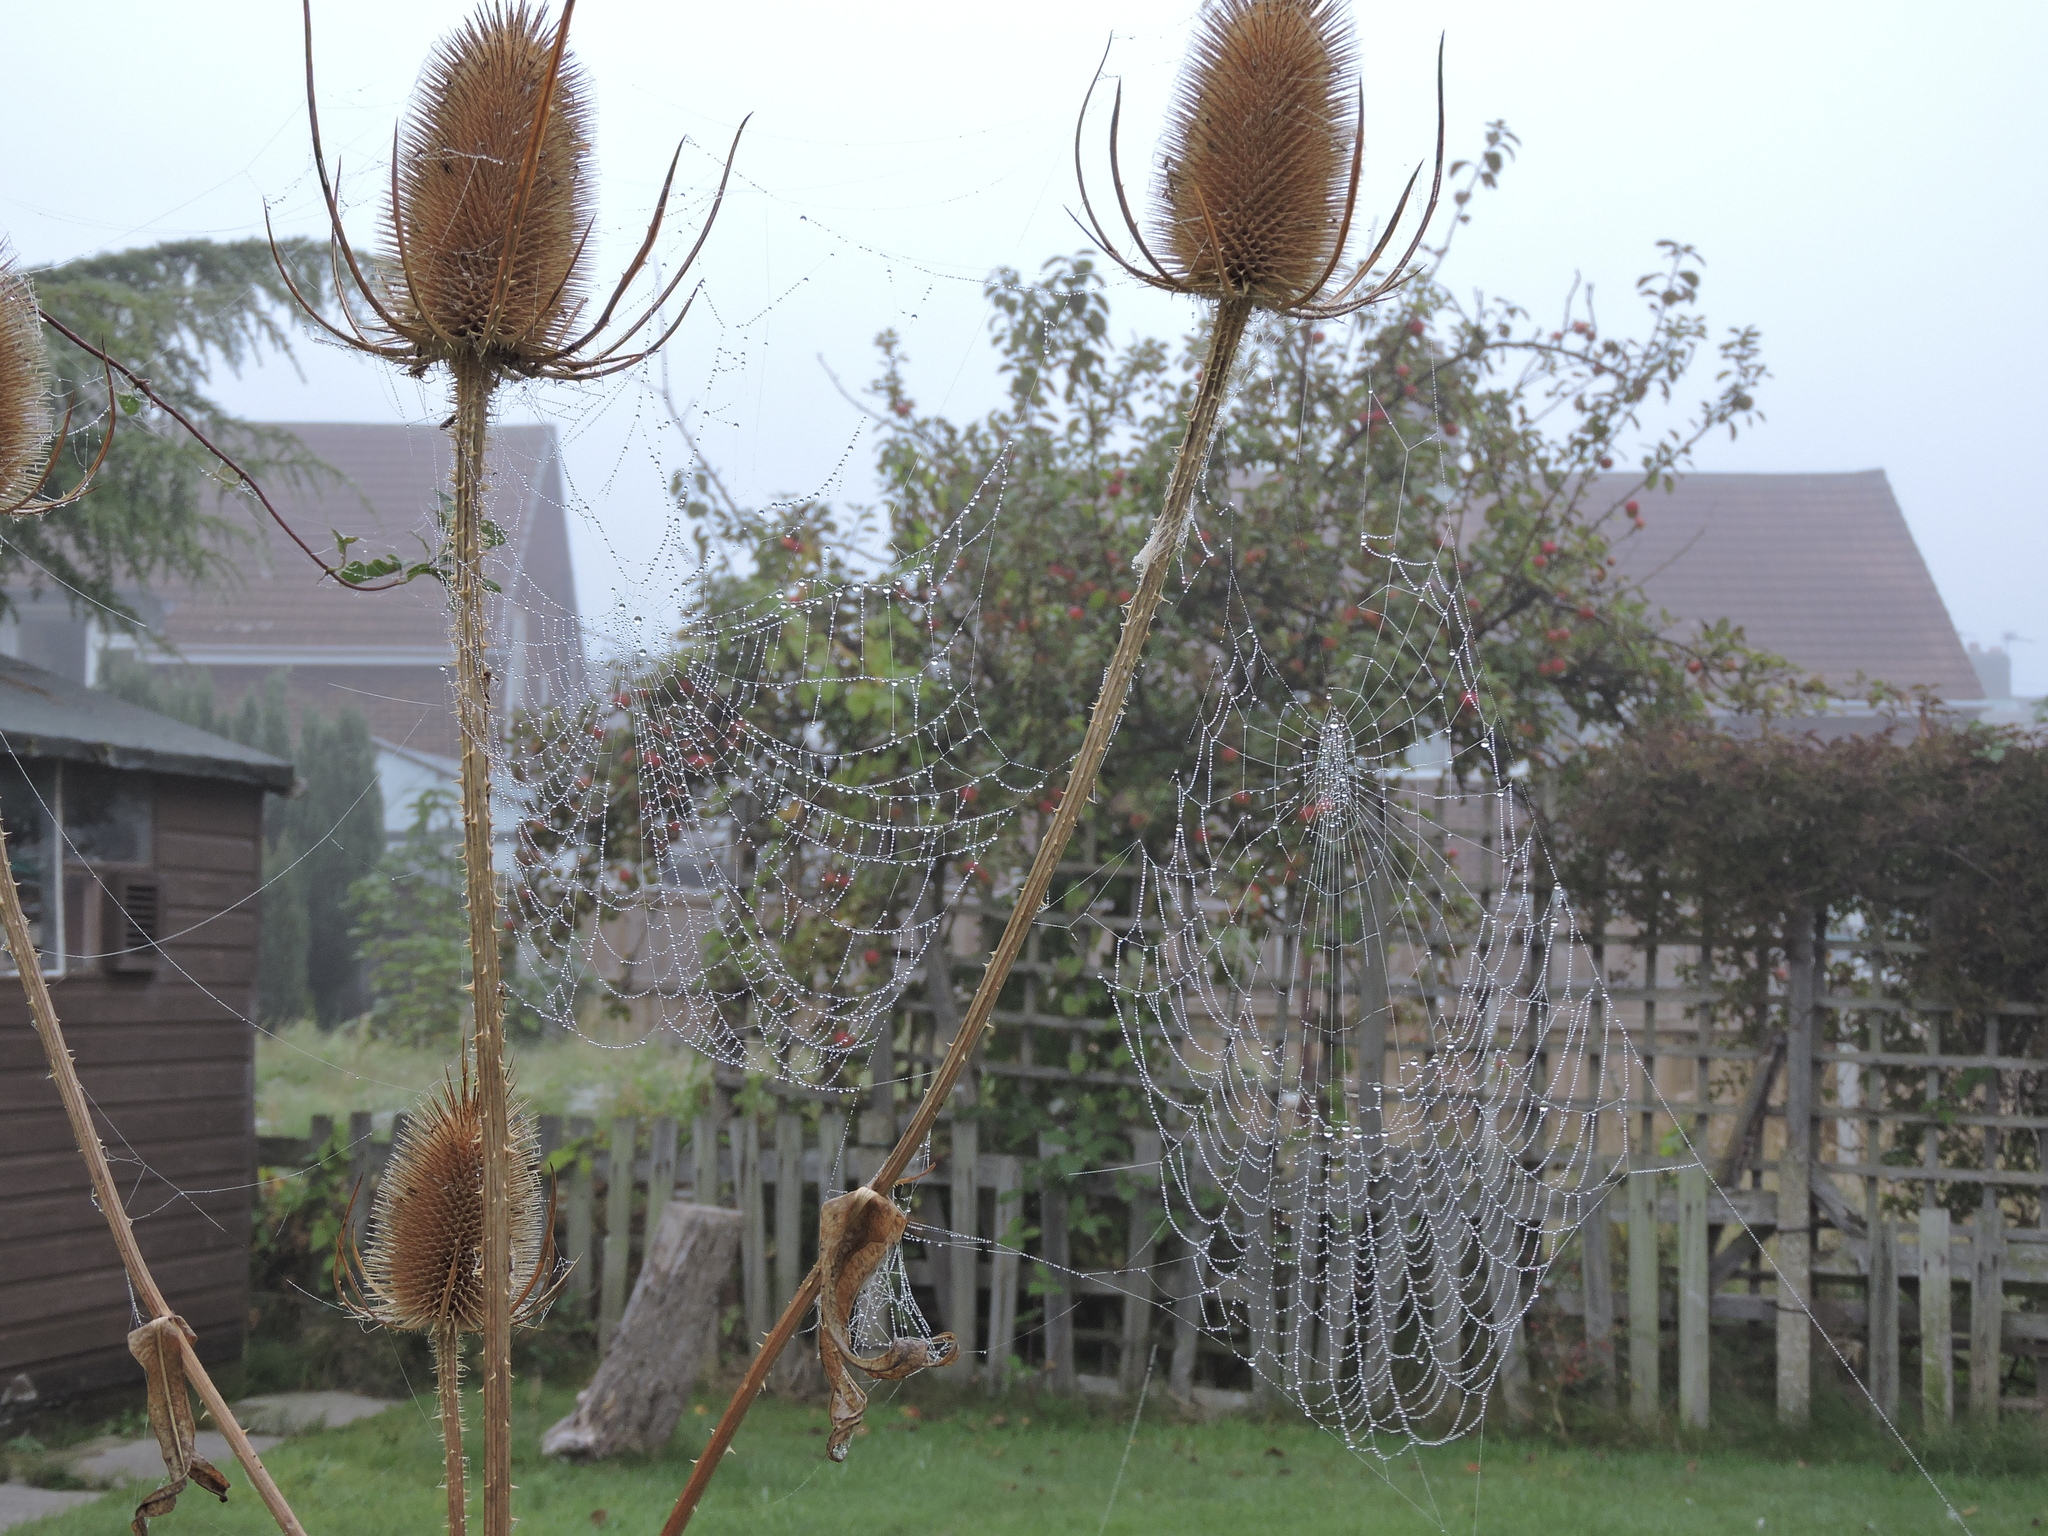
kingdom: Plantae
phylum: Tracheophyta
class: Magnoliopsida
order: Dipsacales
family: Caprifoliaceae
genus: Dipsacus
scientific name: Dipsacus fullonum
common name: Teasel
